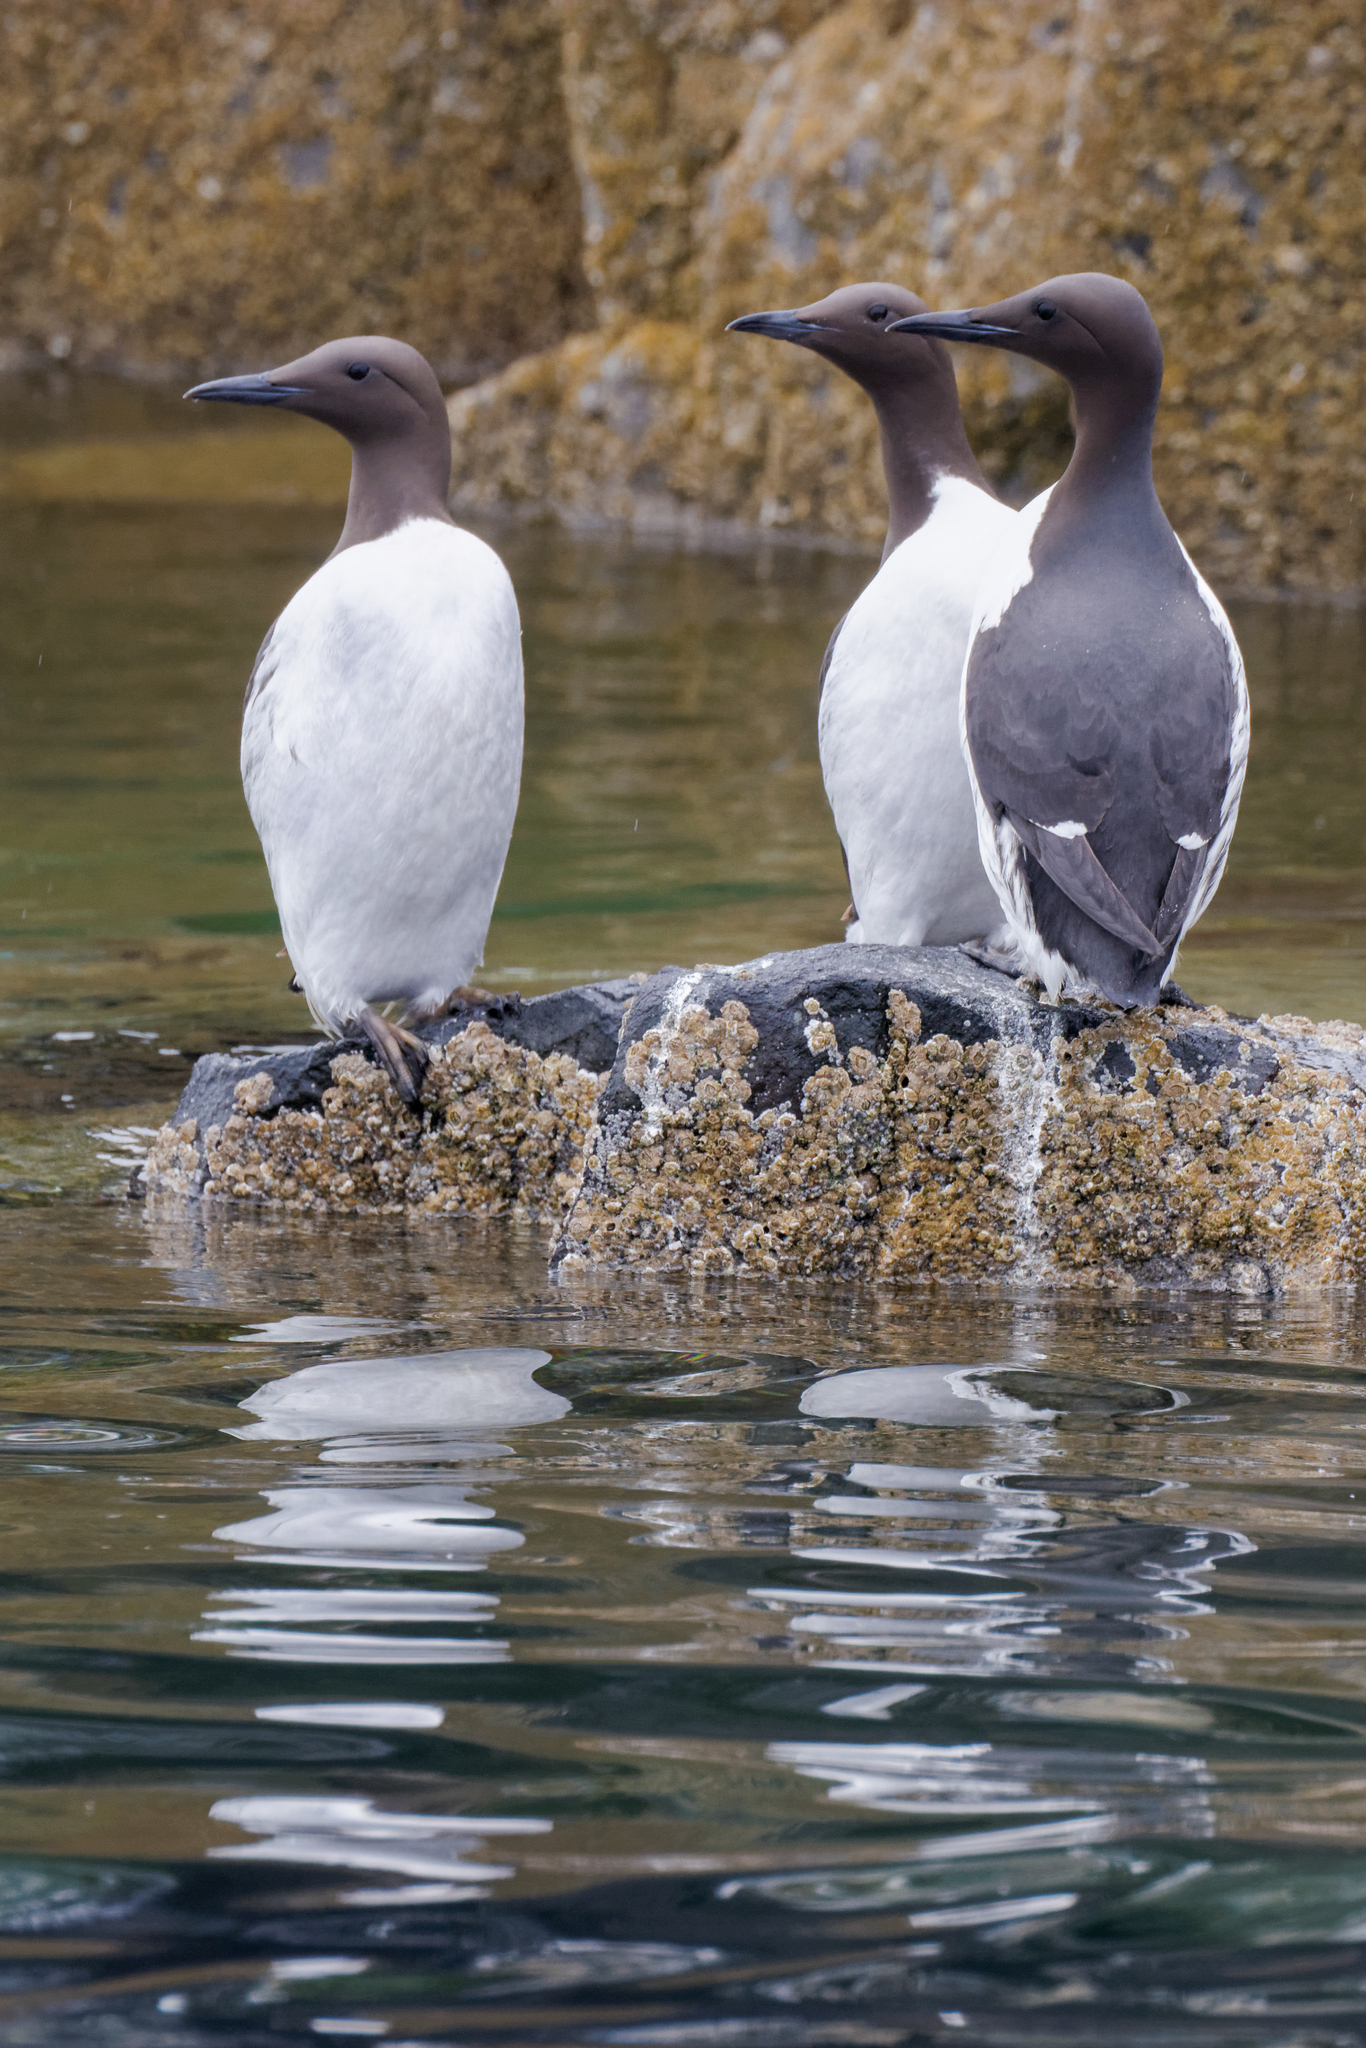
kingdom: Animalia
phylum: Chordata
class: Aves
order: Charadriiformes
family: Alcidae
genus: Uria
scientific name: Uria aalge
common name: Common murre
